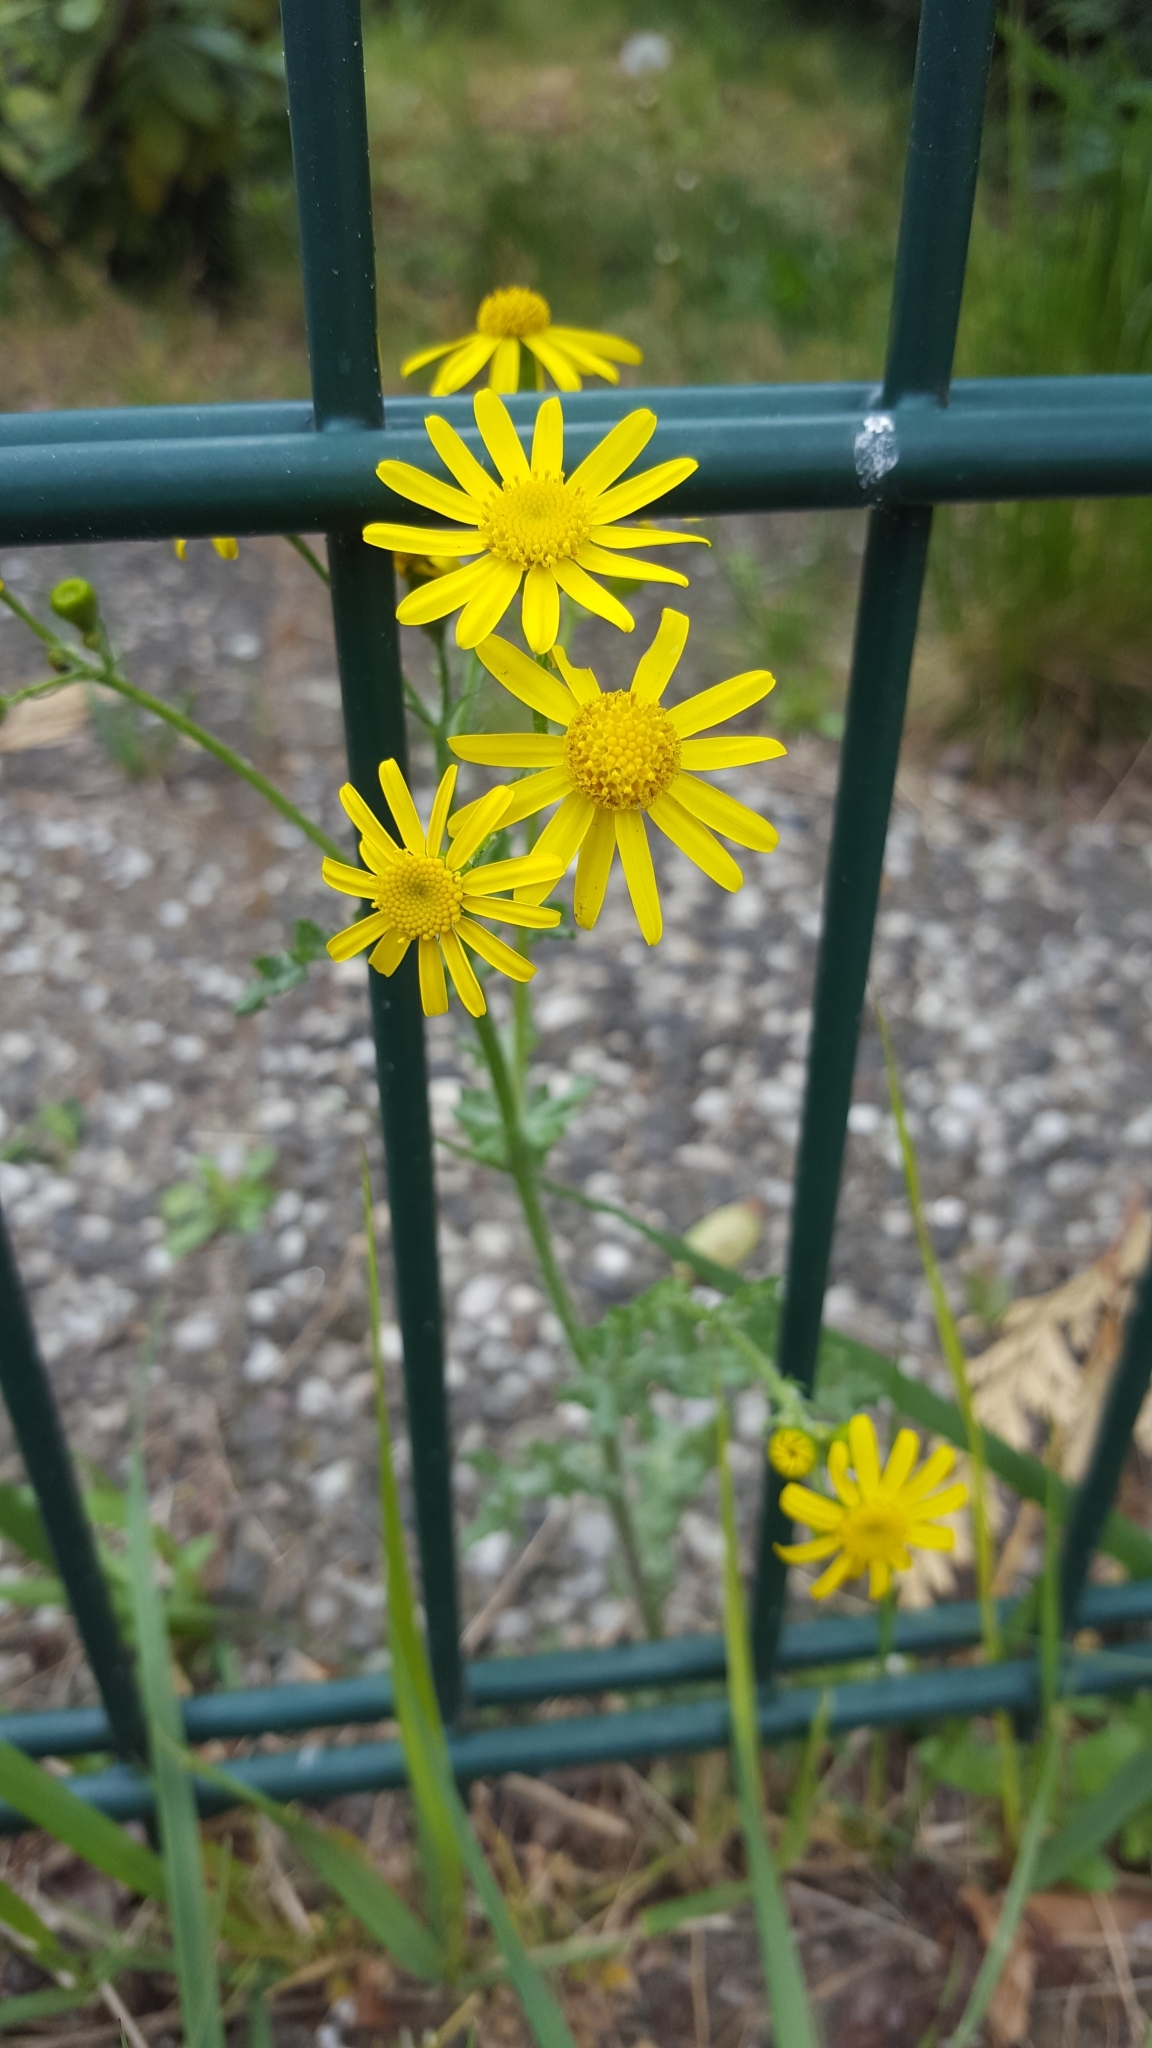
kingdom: Plantae
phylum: Tracheophyta
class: Magnoliopsida
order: Asterales
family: Asteraceae
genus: Senecio
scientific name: Senecio vernalis
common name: Eastern groundsel
